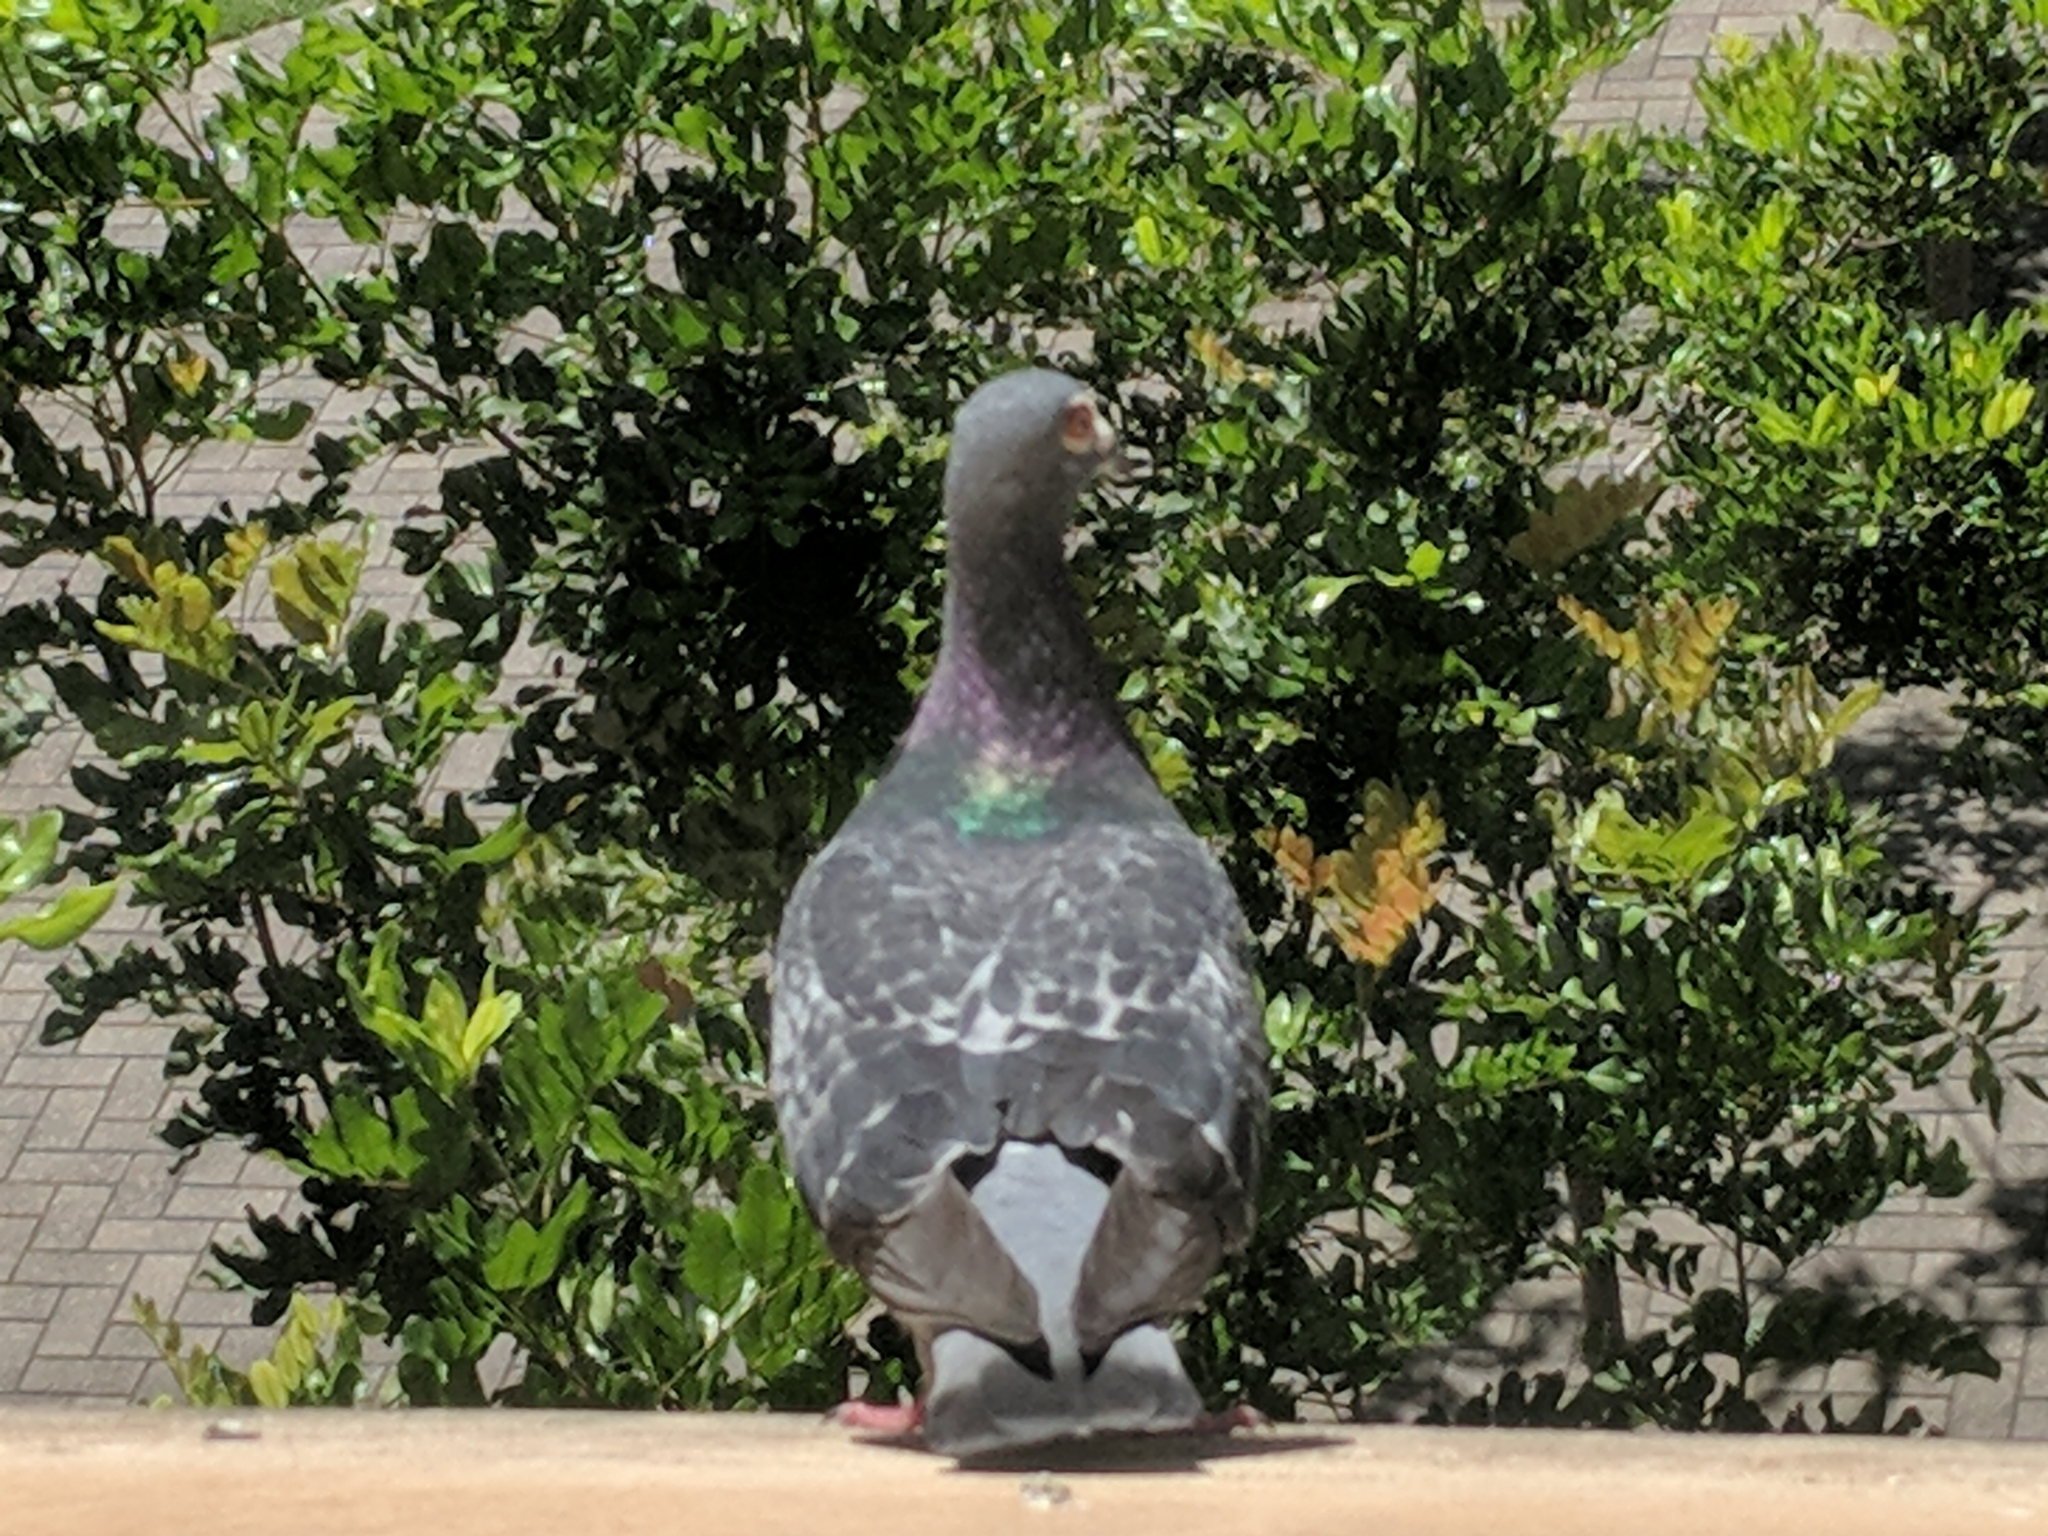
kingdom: Animalia
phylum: Chordata
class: Aves
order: Columbiformes
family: Columbidae
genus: Columba
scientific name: Columba livia
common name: Rock pigeon
